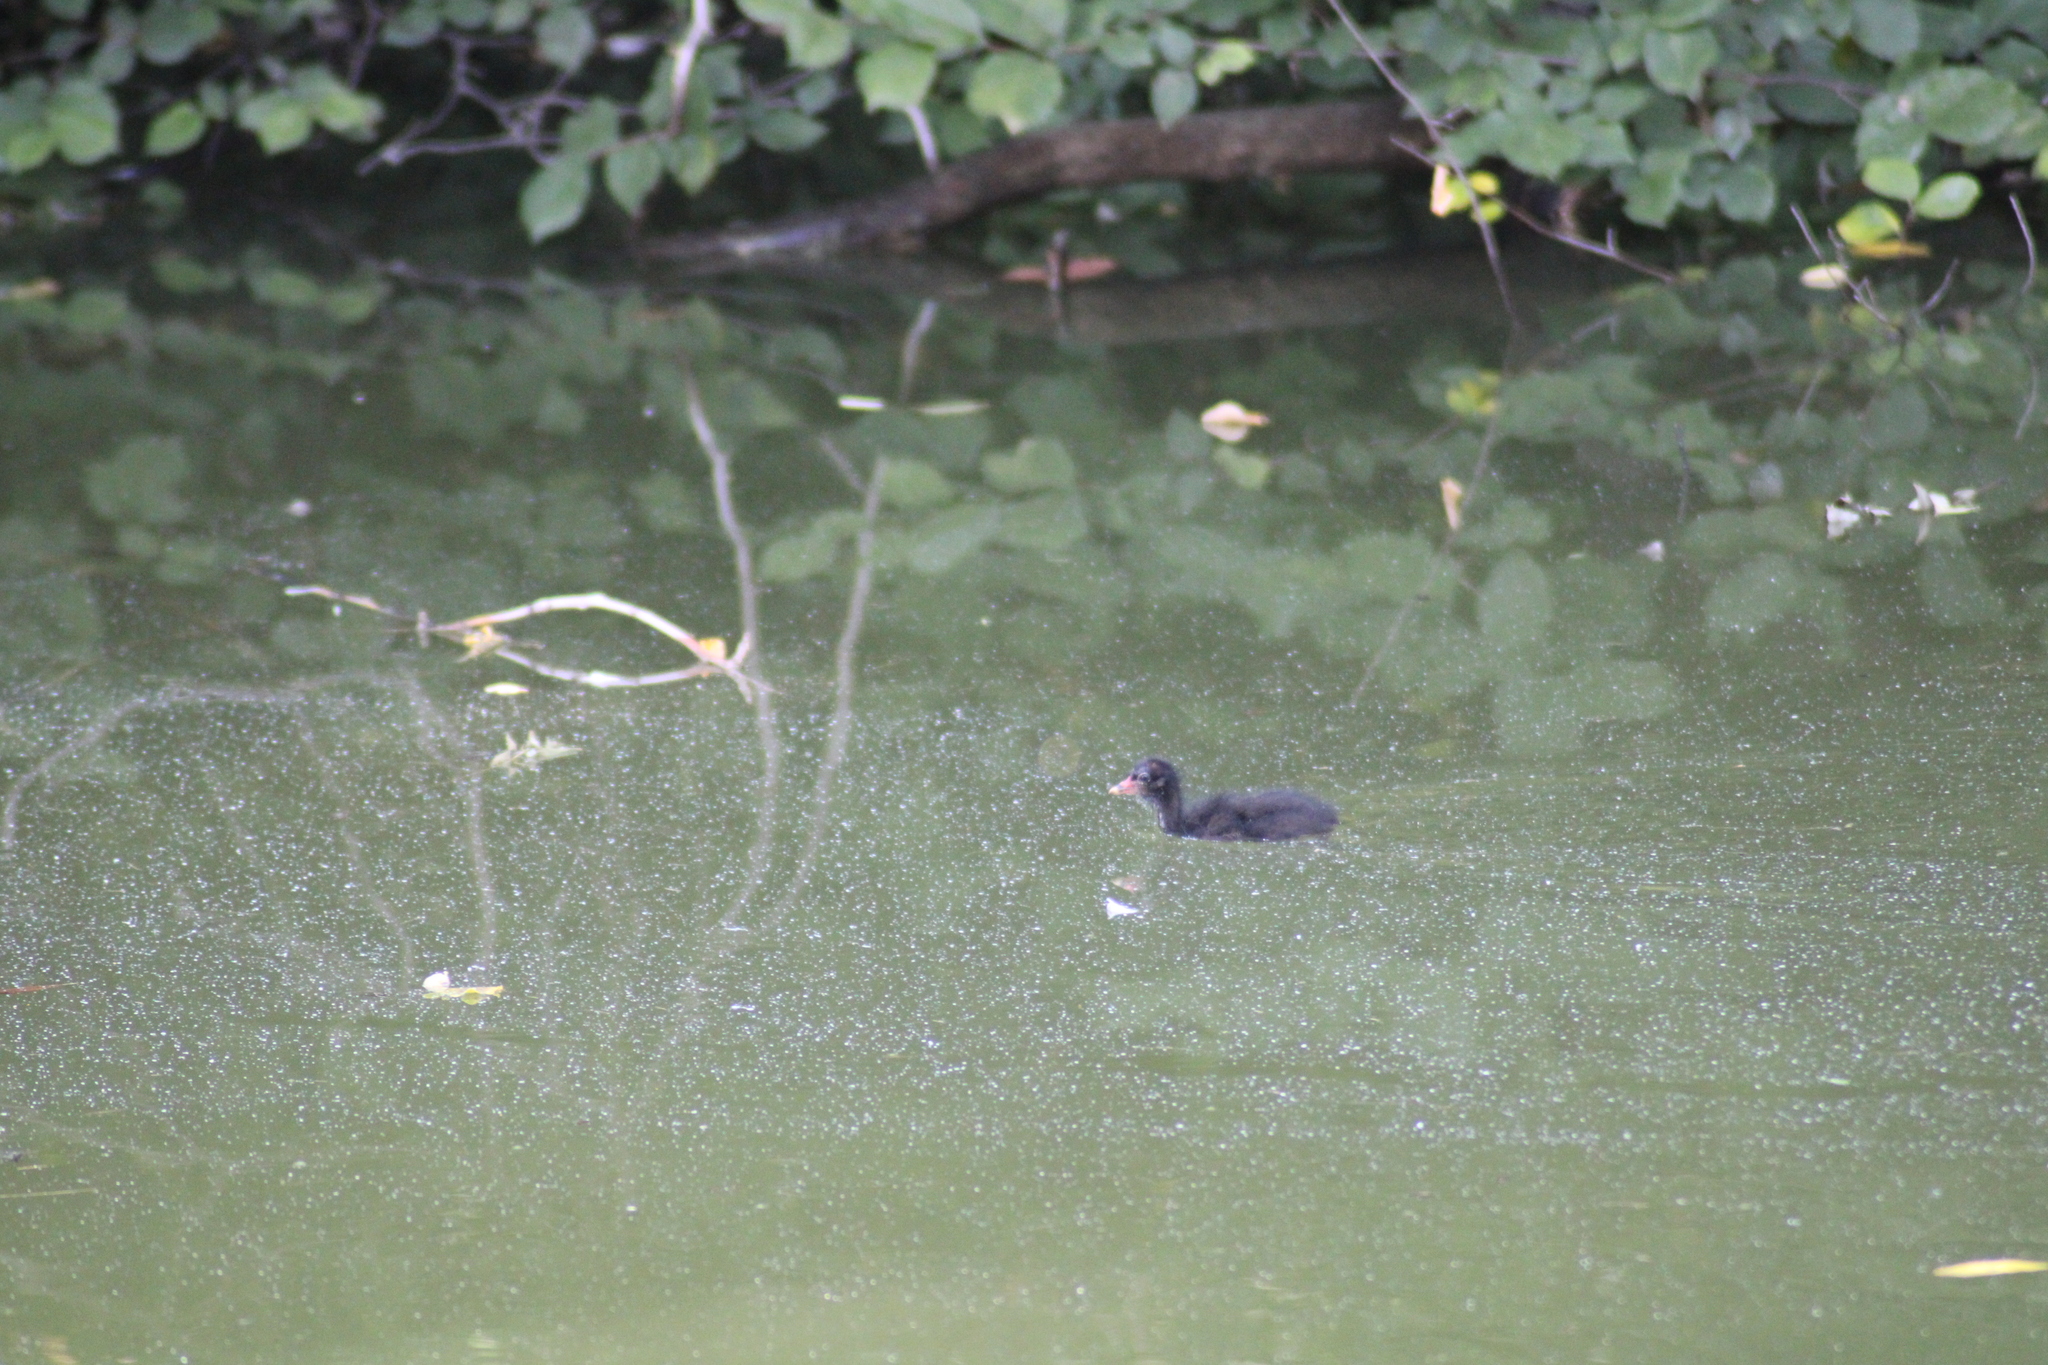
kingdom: Animalia
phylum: Chordata
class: Aves
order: Gruiformes
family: Rallidae
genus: Gallinula
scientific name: Gallinula chloropus
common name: Common moorhen
